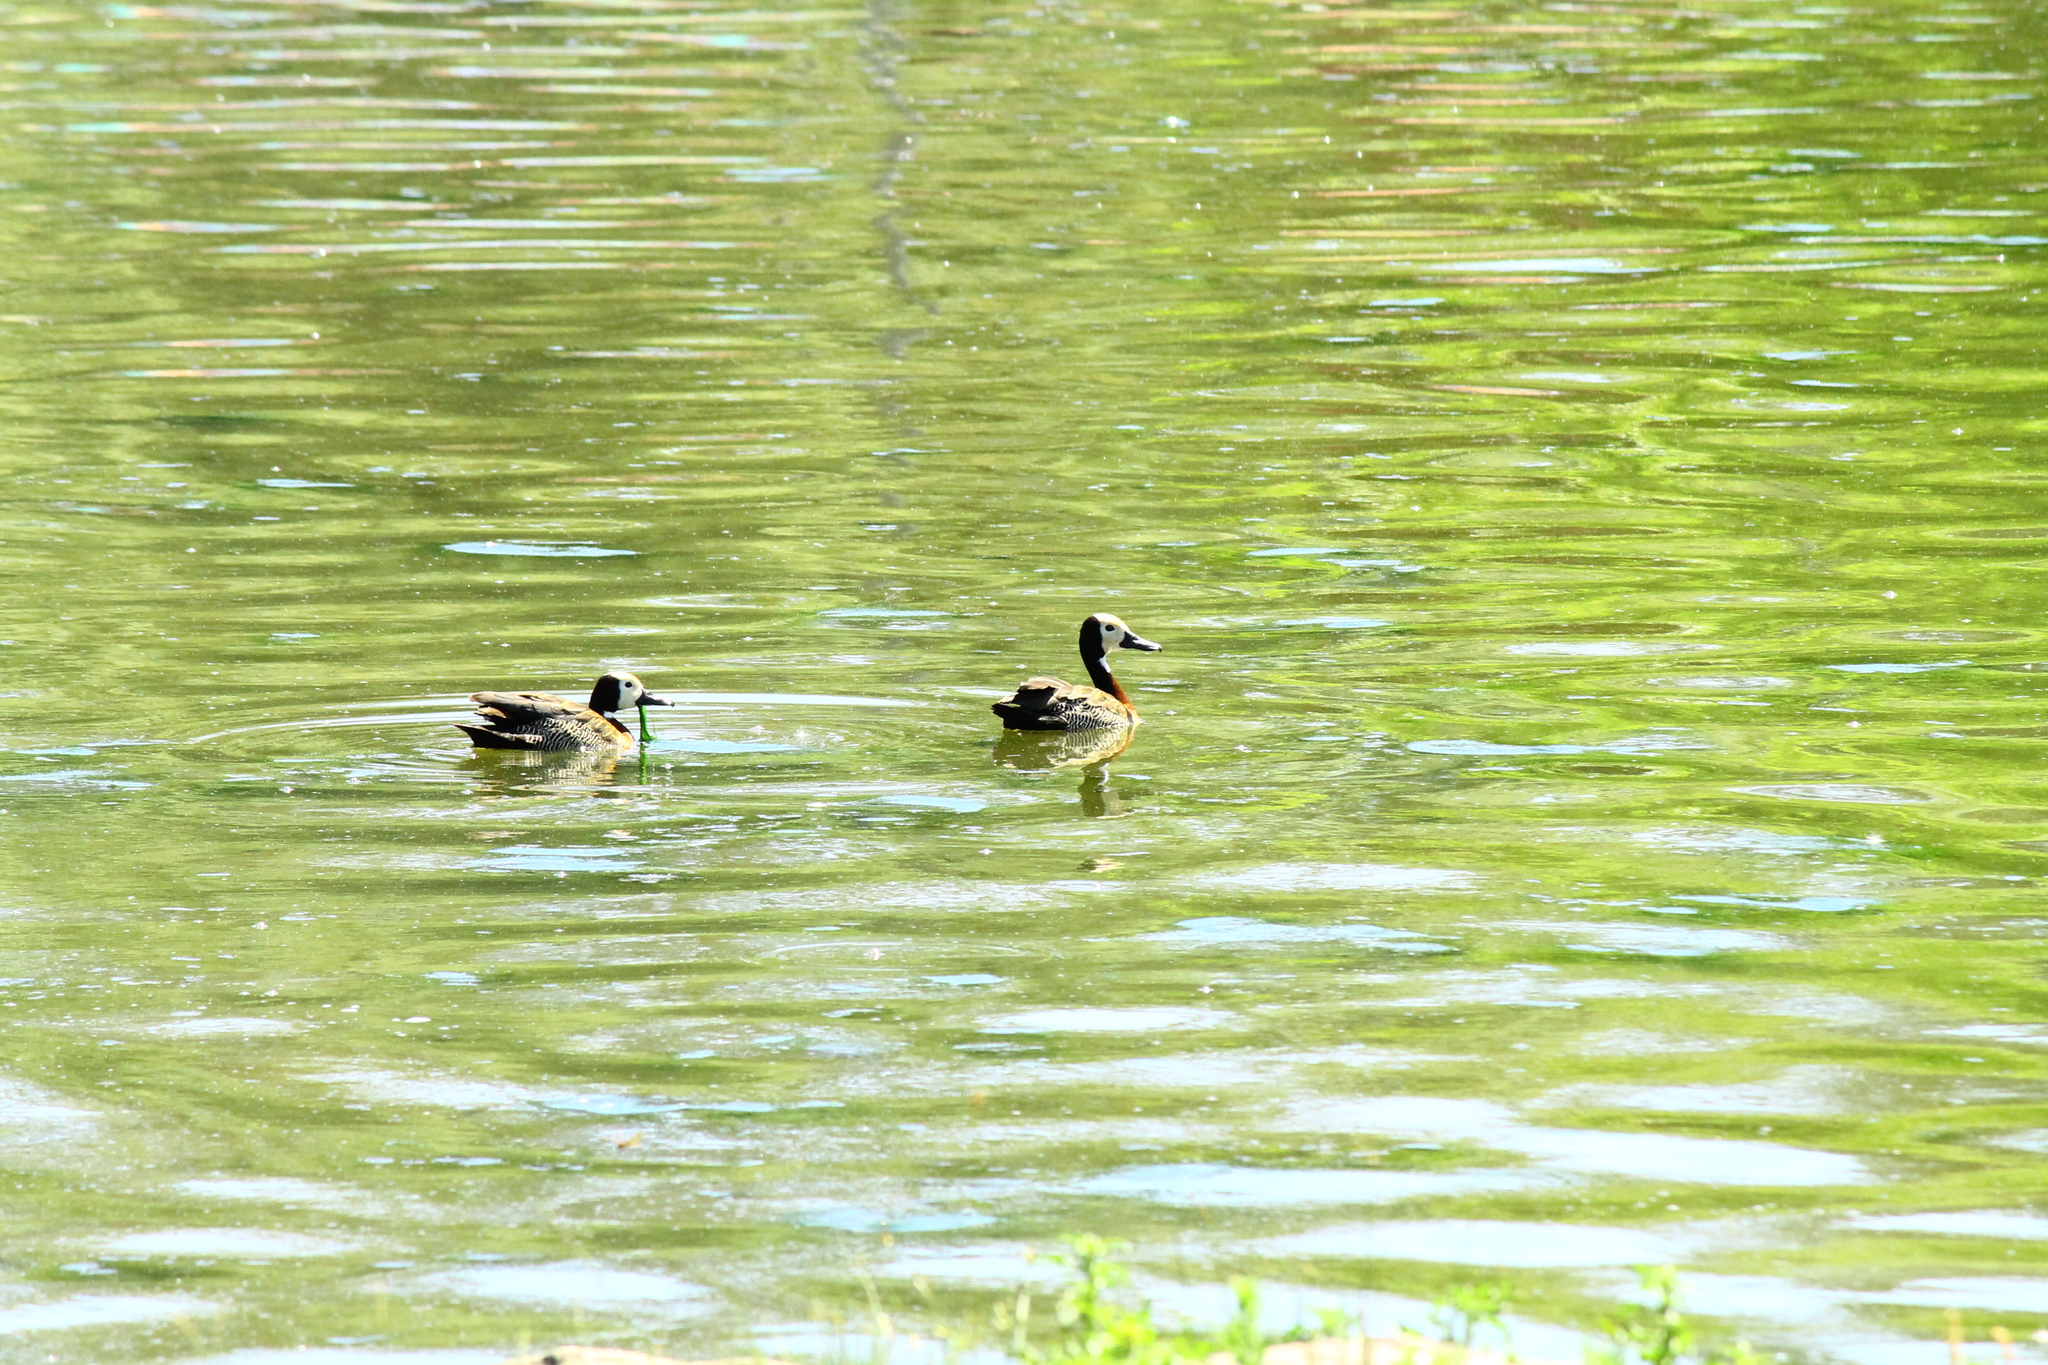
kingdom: Animalia
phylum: Chordata
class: Aves
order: Anseriformes
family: Anatidae
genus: Dendrocygna
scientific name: Dendrocygna viduata
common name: White-faced whistling duck
